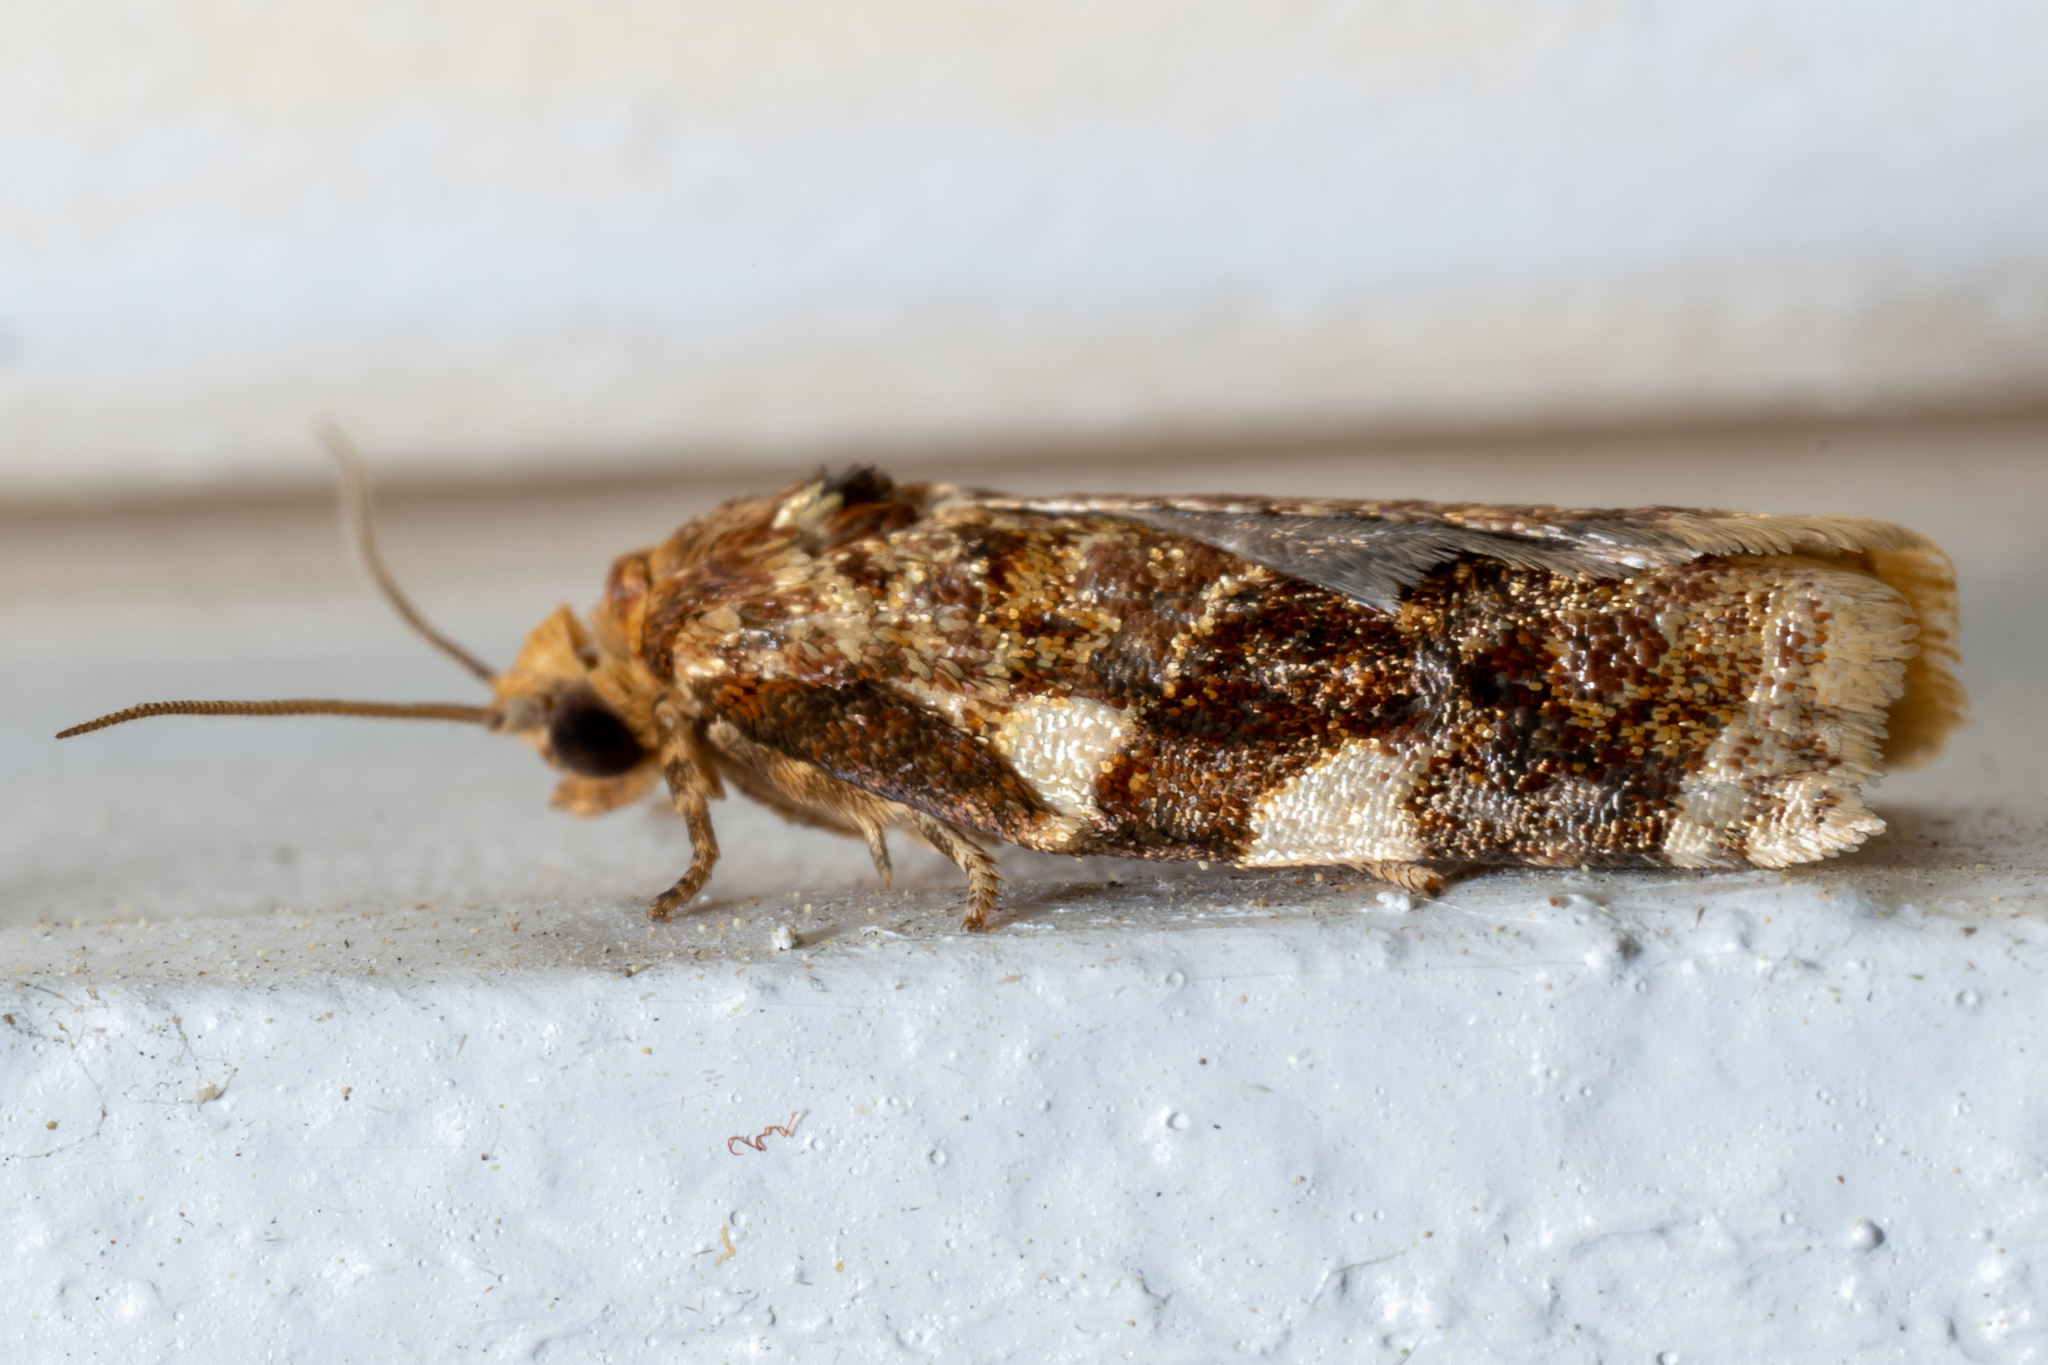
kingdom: Animalia
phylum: Arthropoda
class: Insecta
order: Lepidoptera
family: Tortricidae
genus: Archips
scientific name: Archips argyrospila
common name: Fruit-tree leafroller moth
